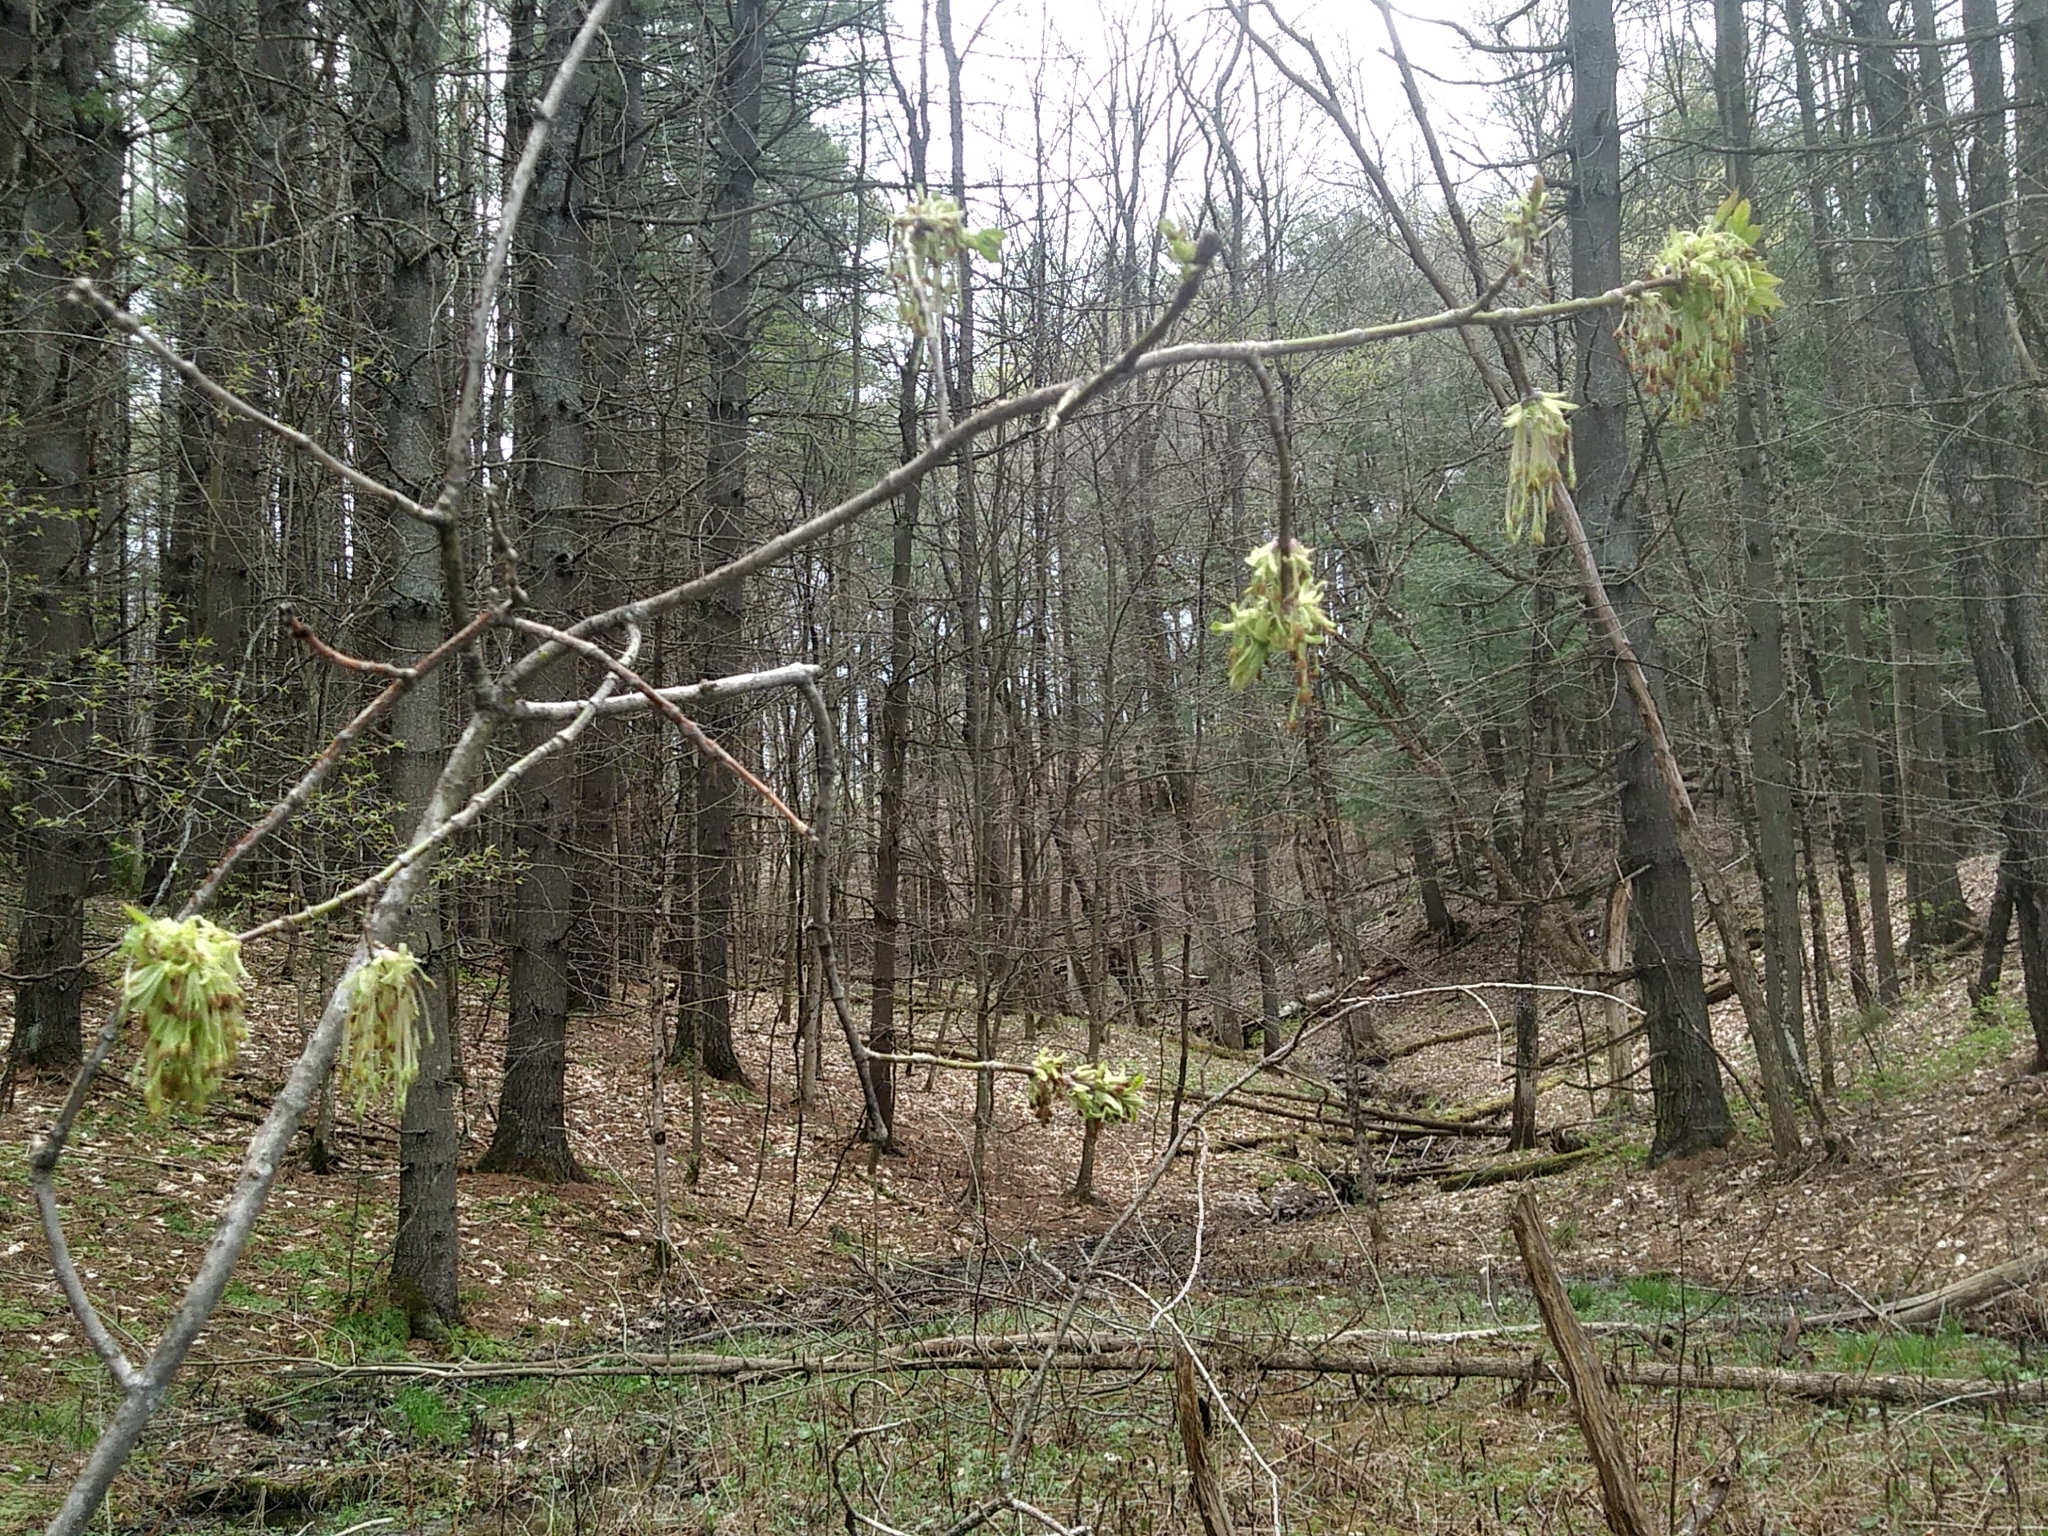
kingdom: Plantae
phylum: Tracheophyta
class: Magnoliopsida
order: Sapindales
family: Sapindaceae
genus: Acer
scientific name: Acer negundo
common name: Ashleaf maple
